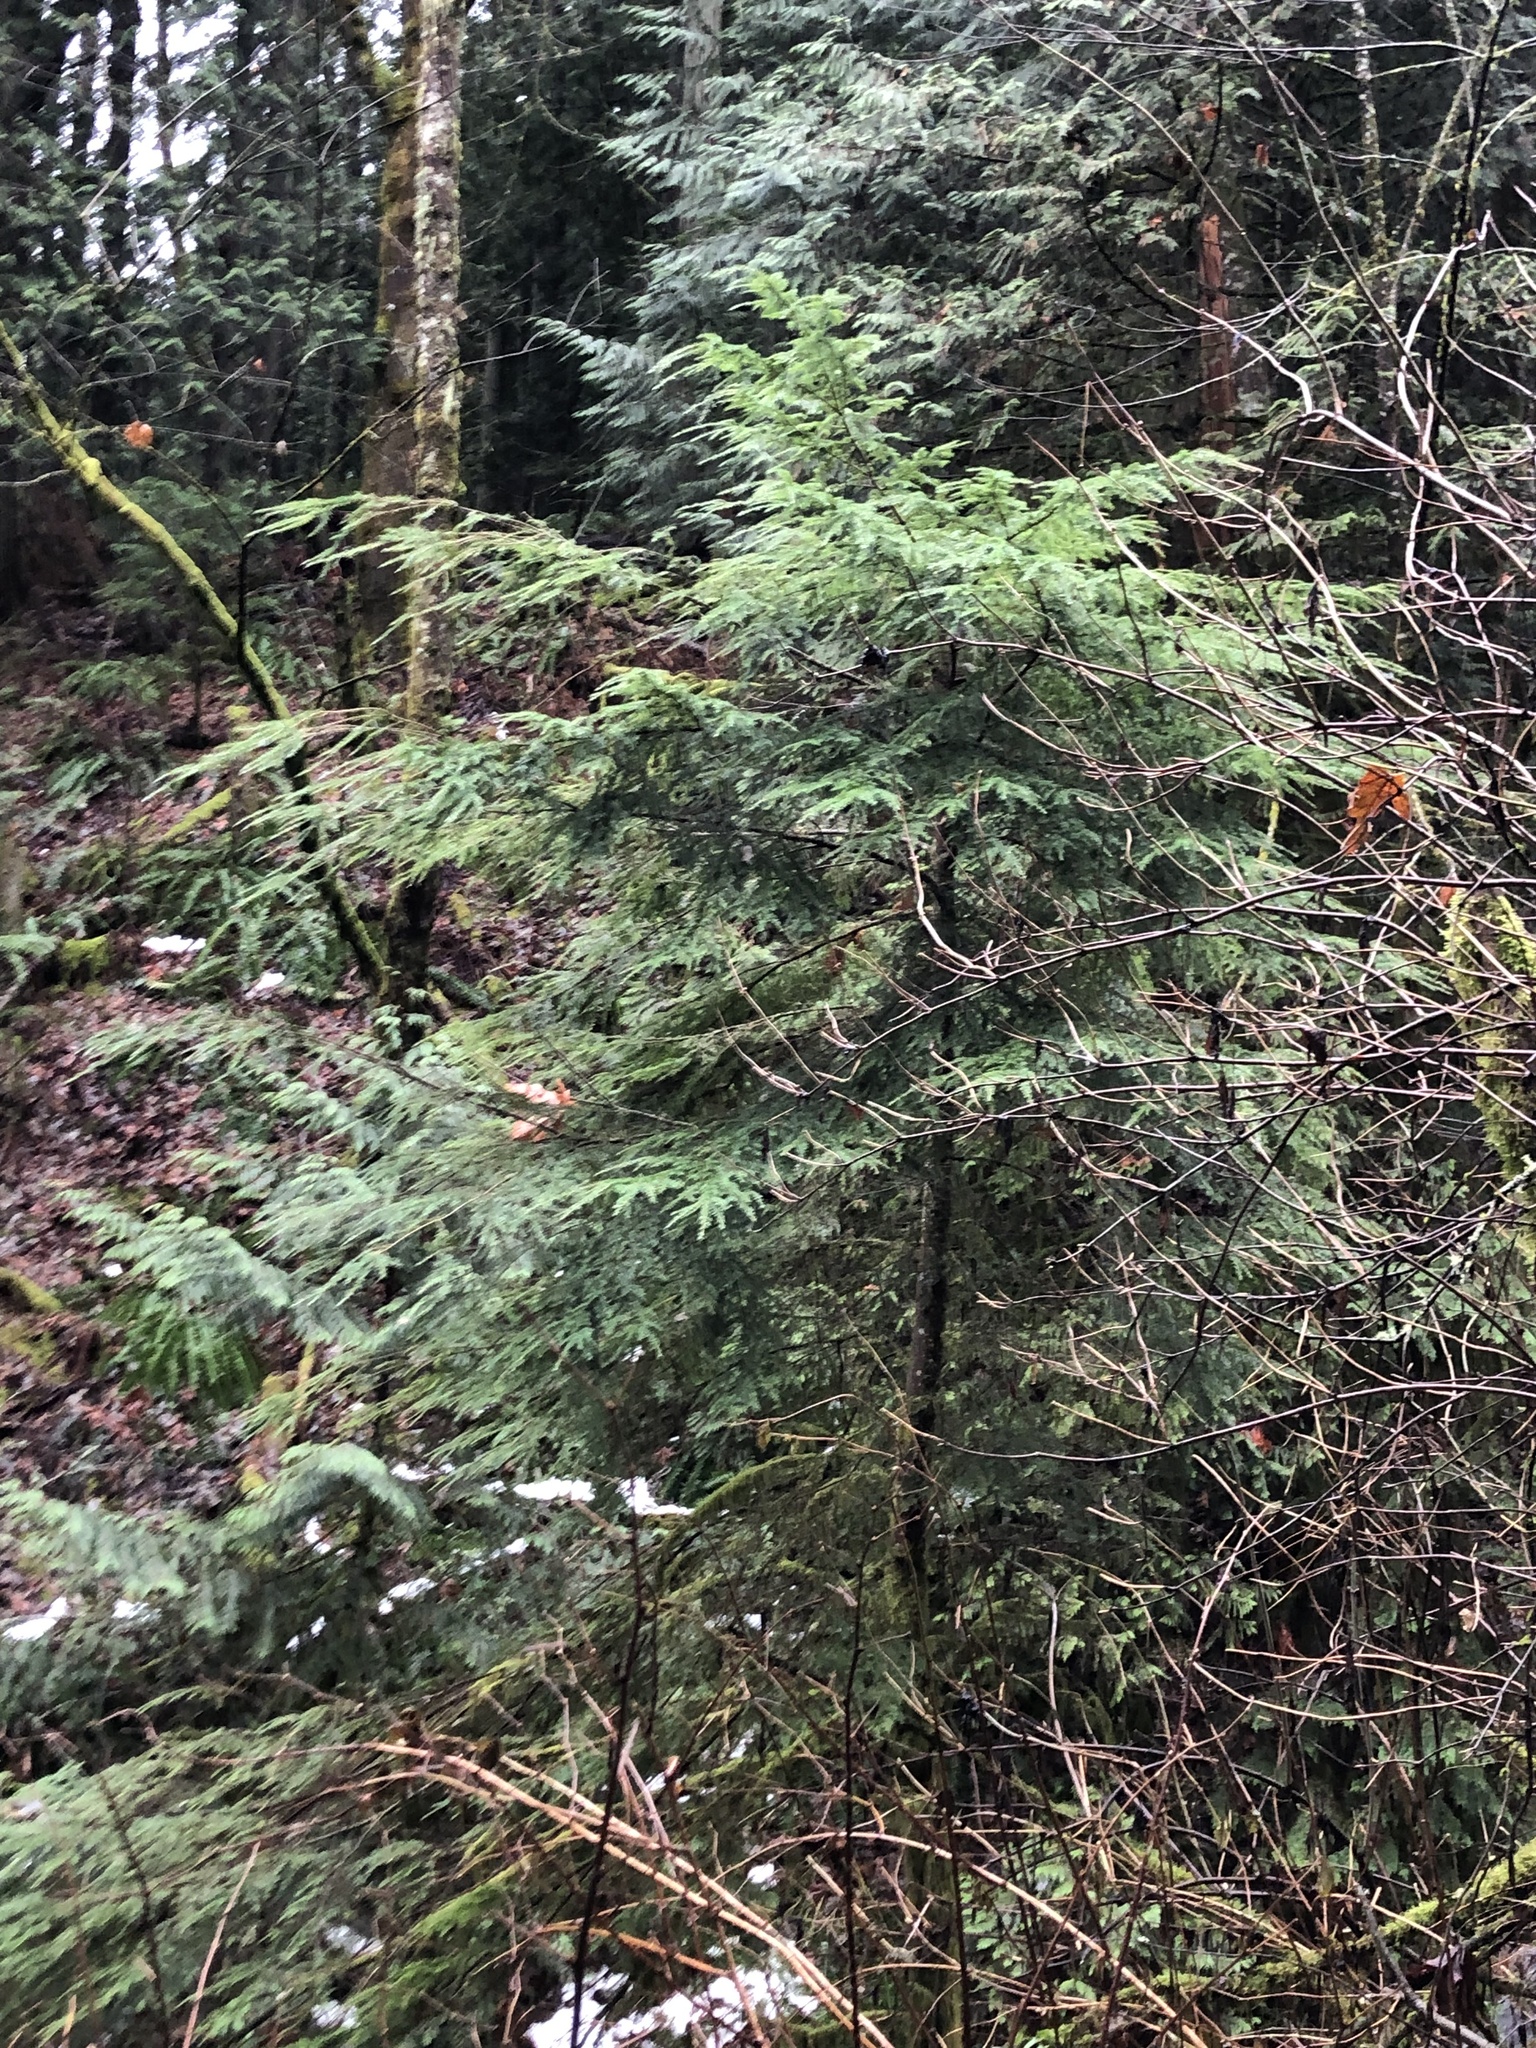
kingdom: Plantae
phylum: Tracheophyta
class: Pinopsida
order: Pinales
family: Pinaceae
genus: Tsuga
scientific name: Tsuga heterophylla
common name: Western hemlock
